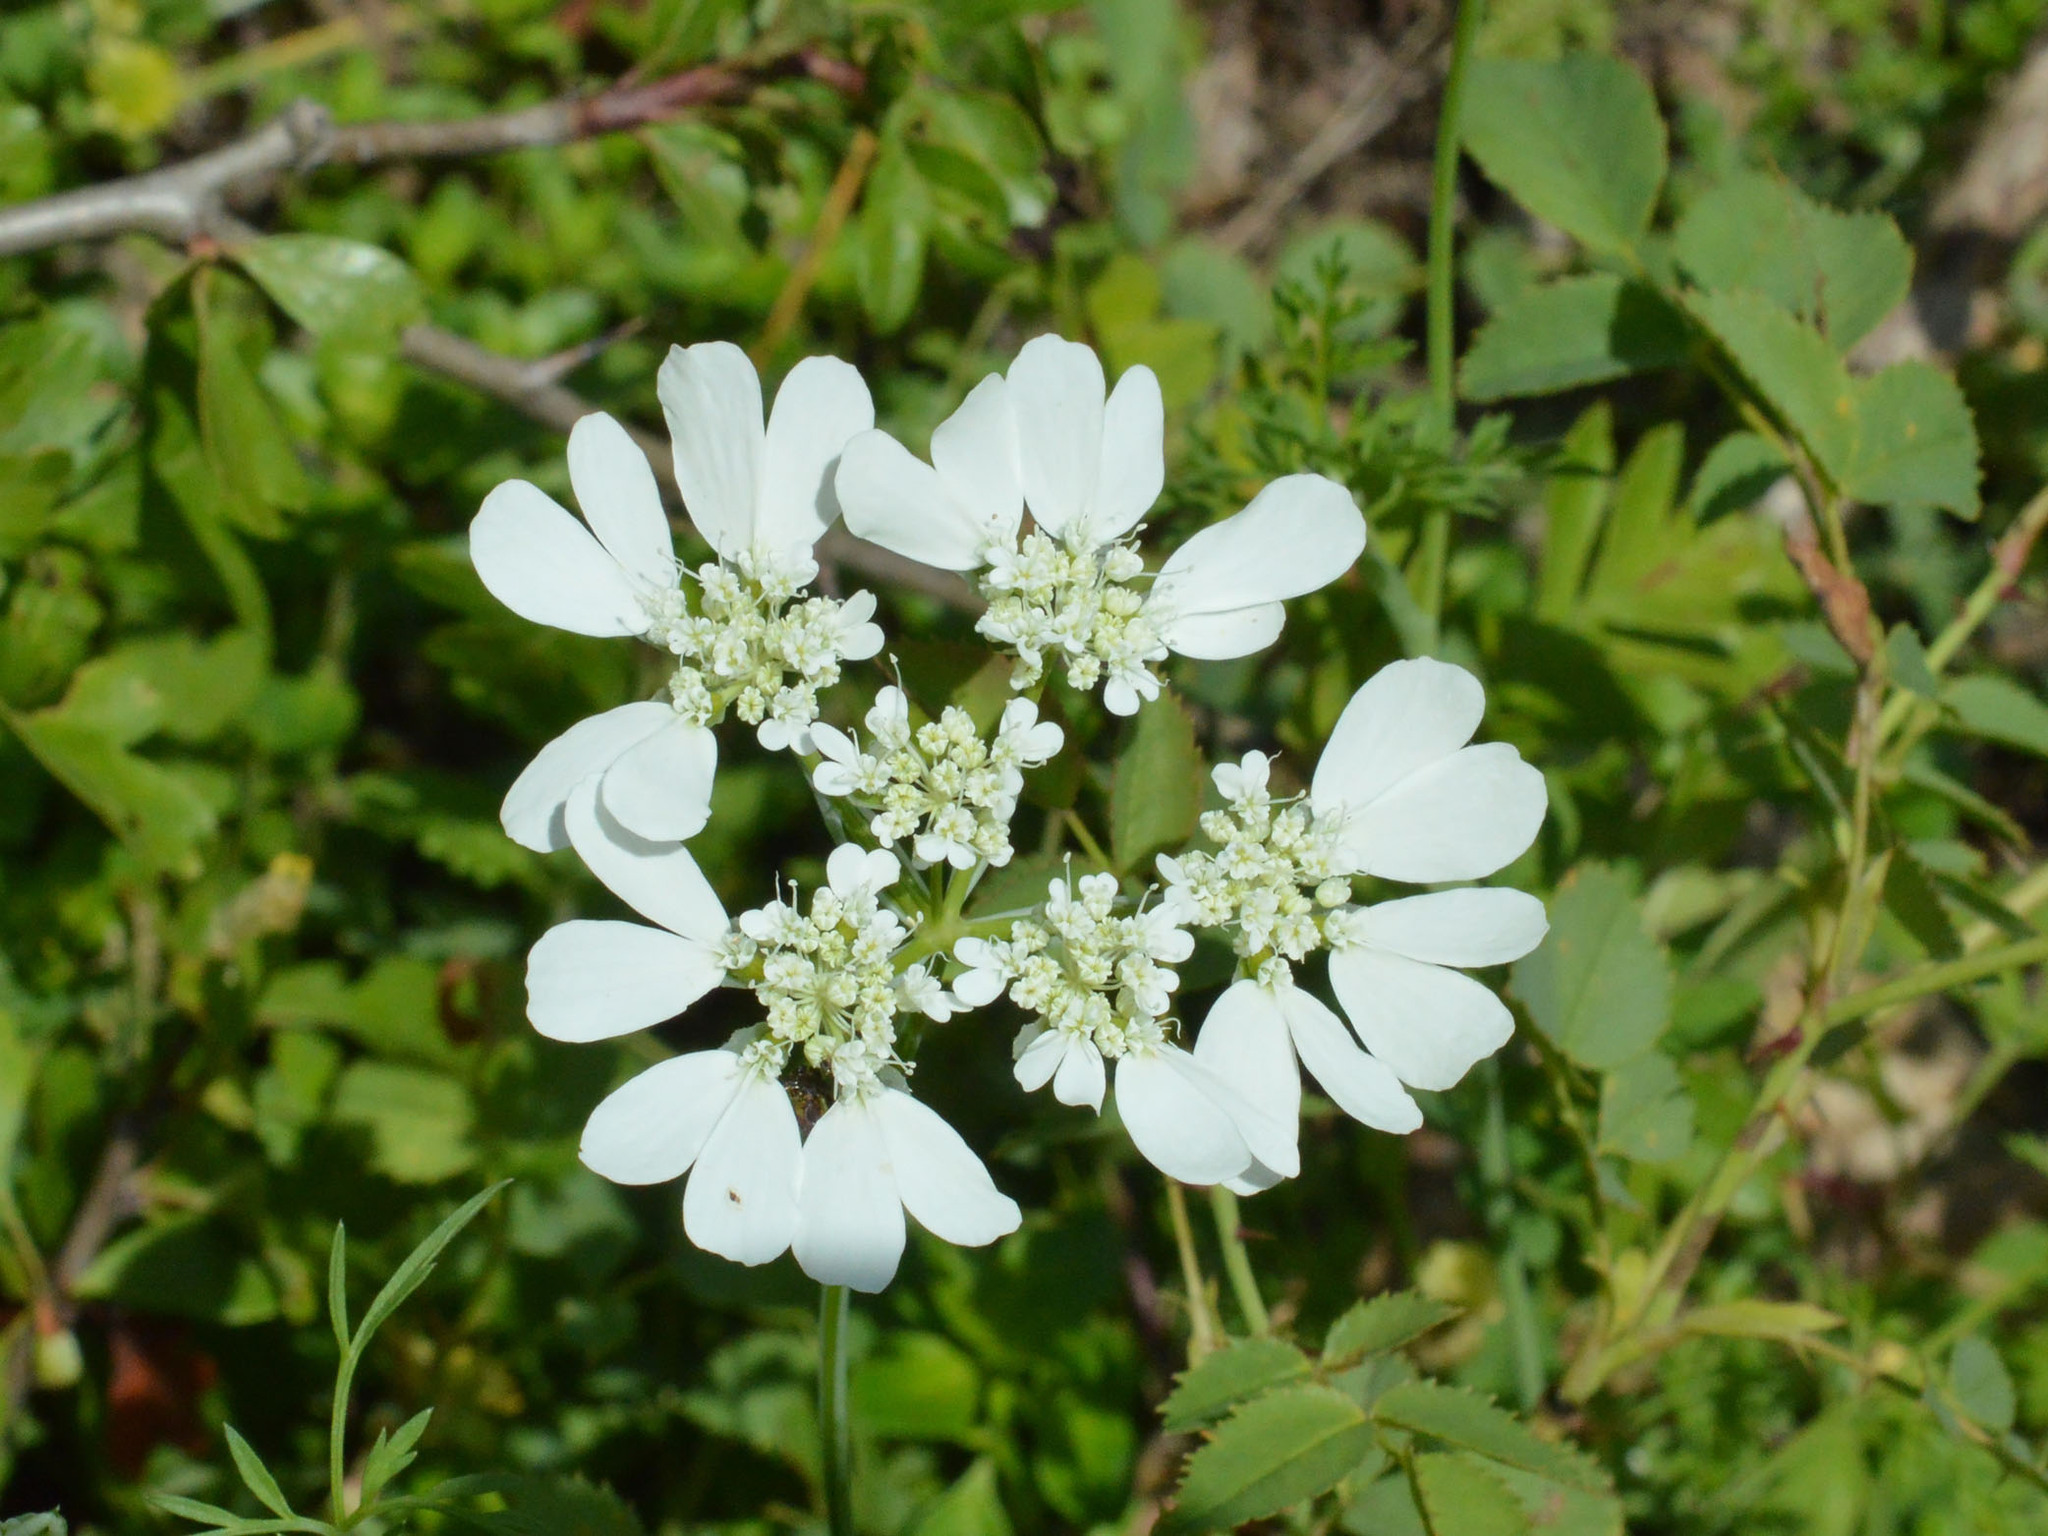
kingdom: Plantae
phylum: Tracheophyta
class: Magnoliopsida
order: Apiales
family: Apiaceae
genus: Orlaya
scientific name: Orlaya grandiflora
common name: White lace flower
